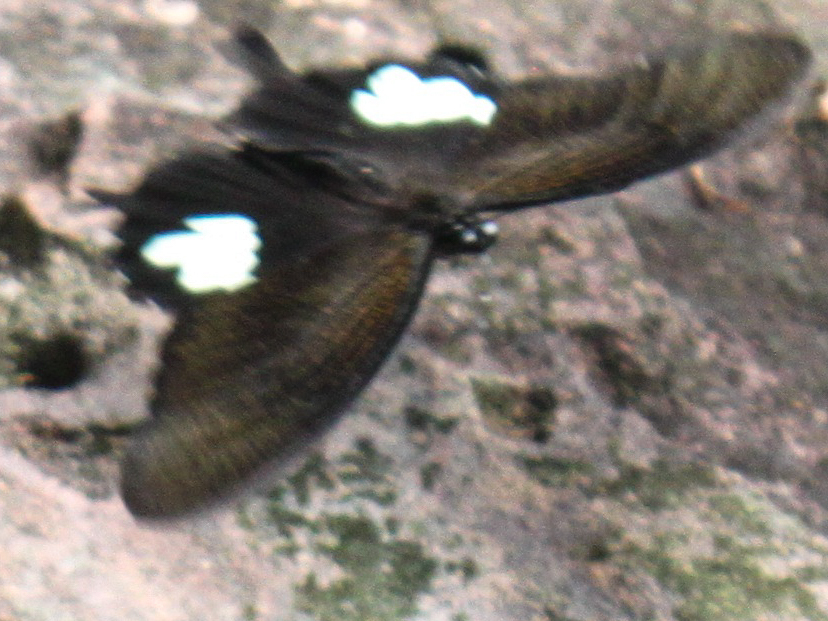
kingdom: Animalia
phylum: Arthropoda
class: Insecta
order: Lepidoptera
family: Papilionidae
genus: Atrophaneura
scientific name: Atrophaneura varuna
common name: Common batwing
